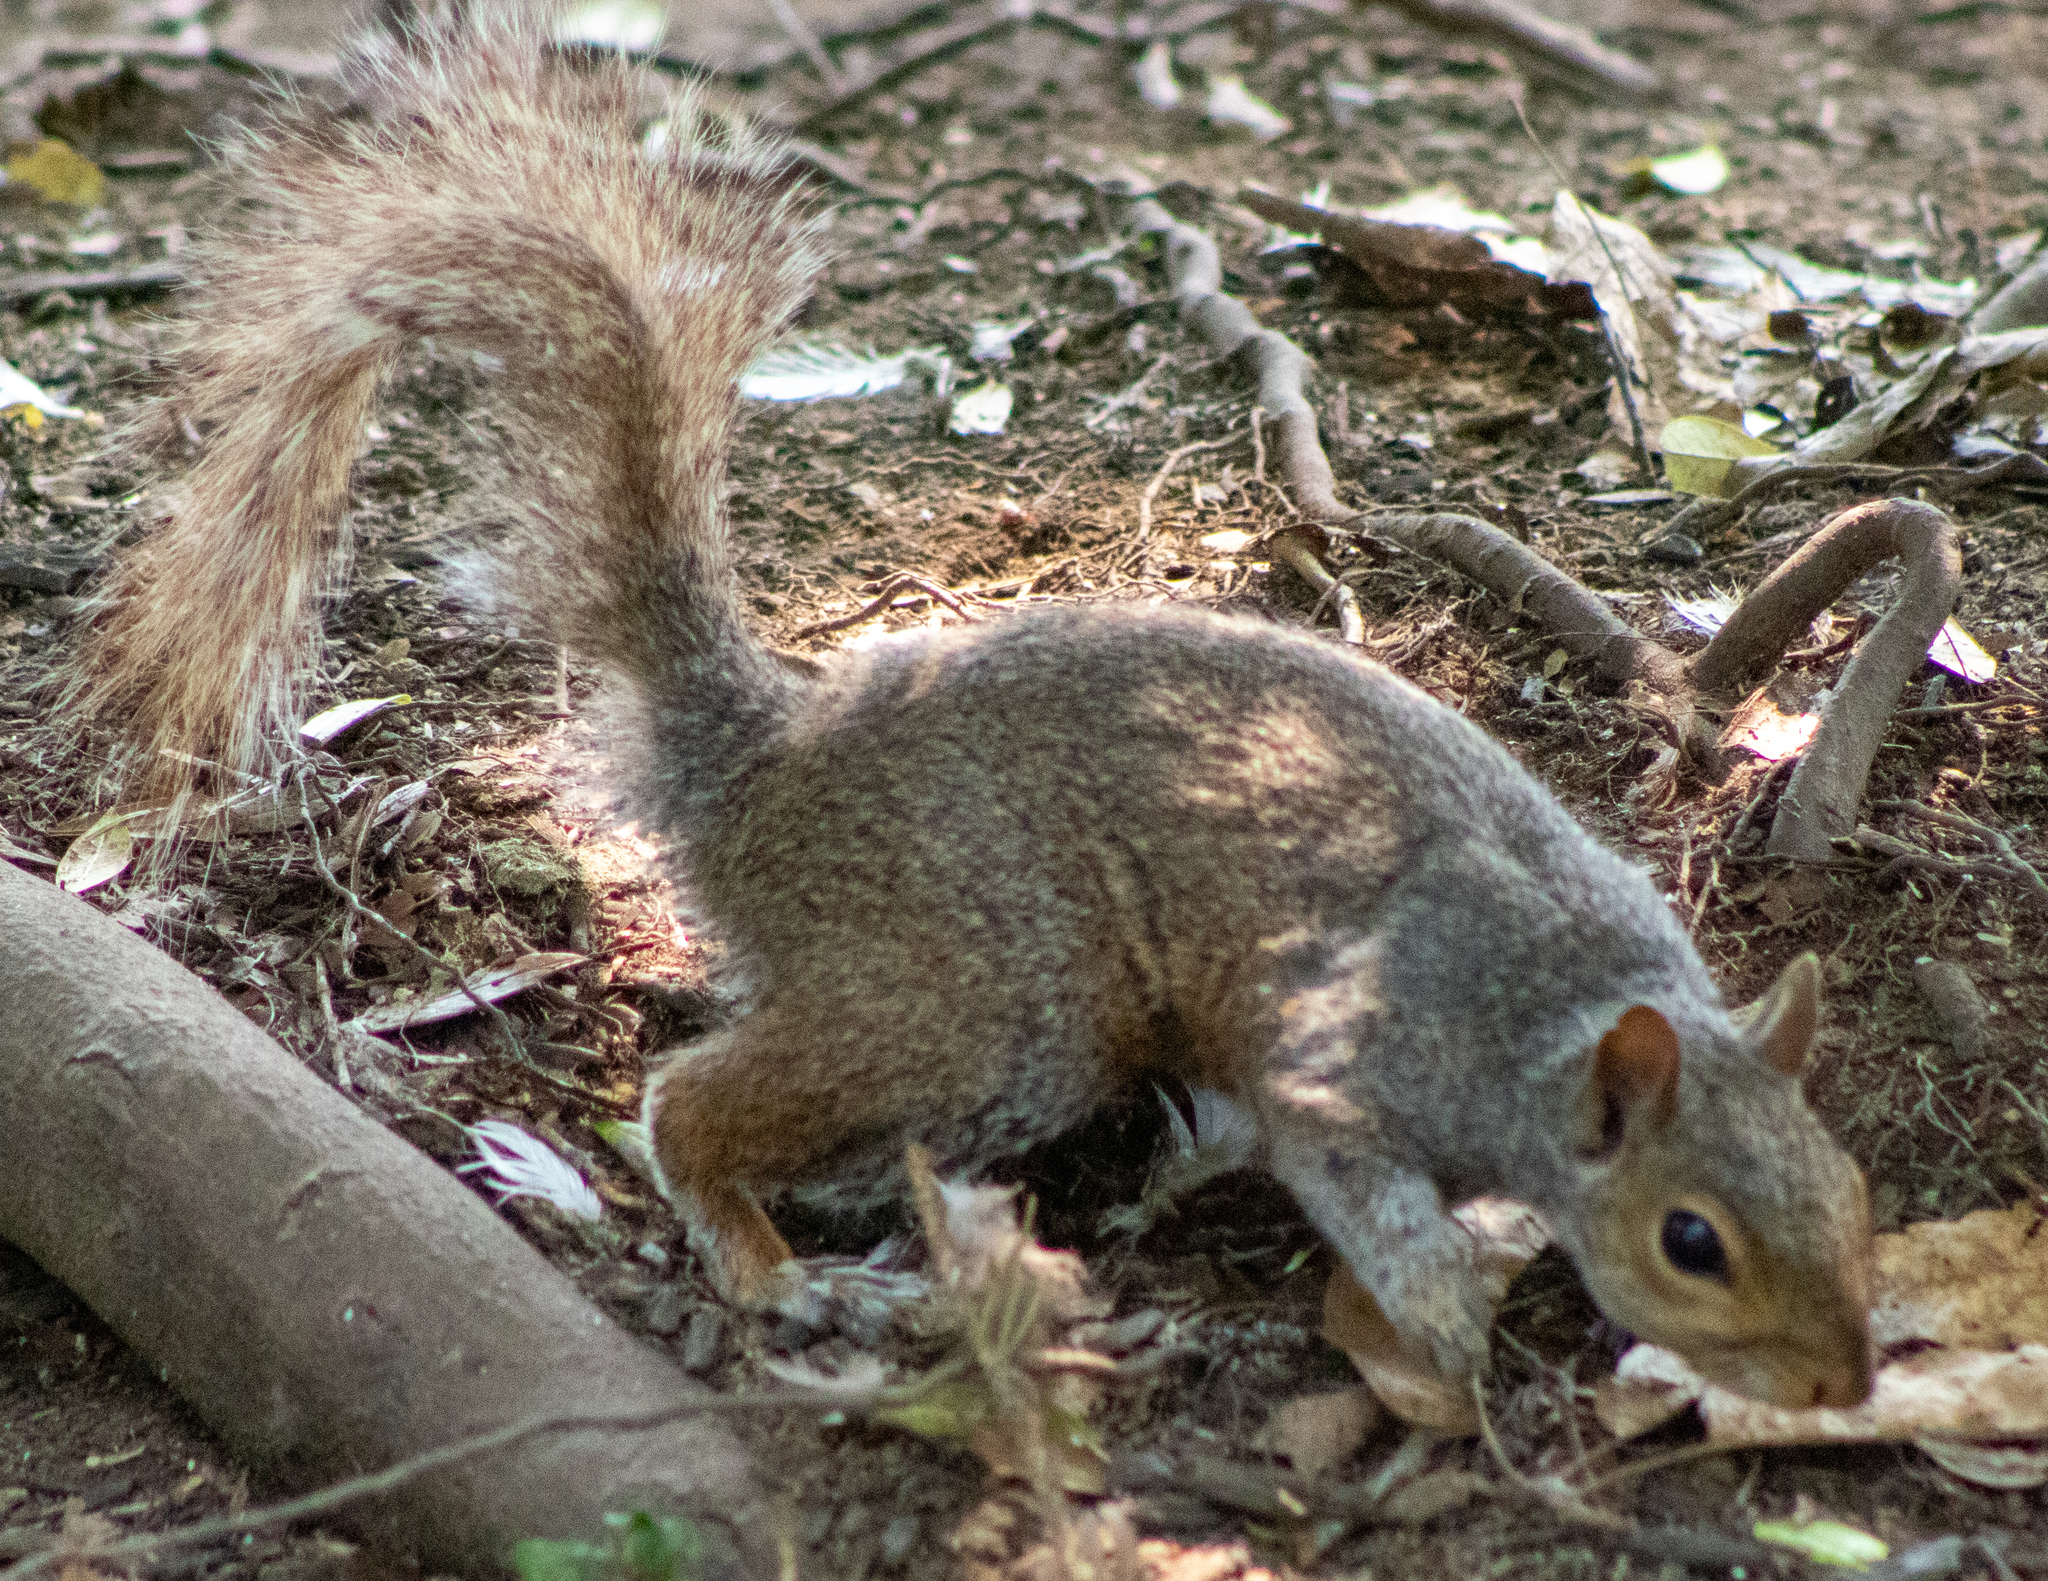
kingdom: Animalia
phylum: Chordata
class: Mammalia
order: Rodentia
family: Sciuridae
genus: Sciurus
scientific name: Sciurus carolinensis
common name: Eastern gray squirrel
